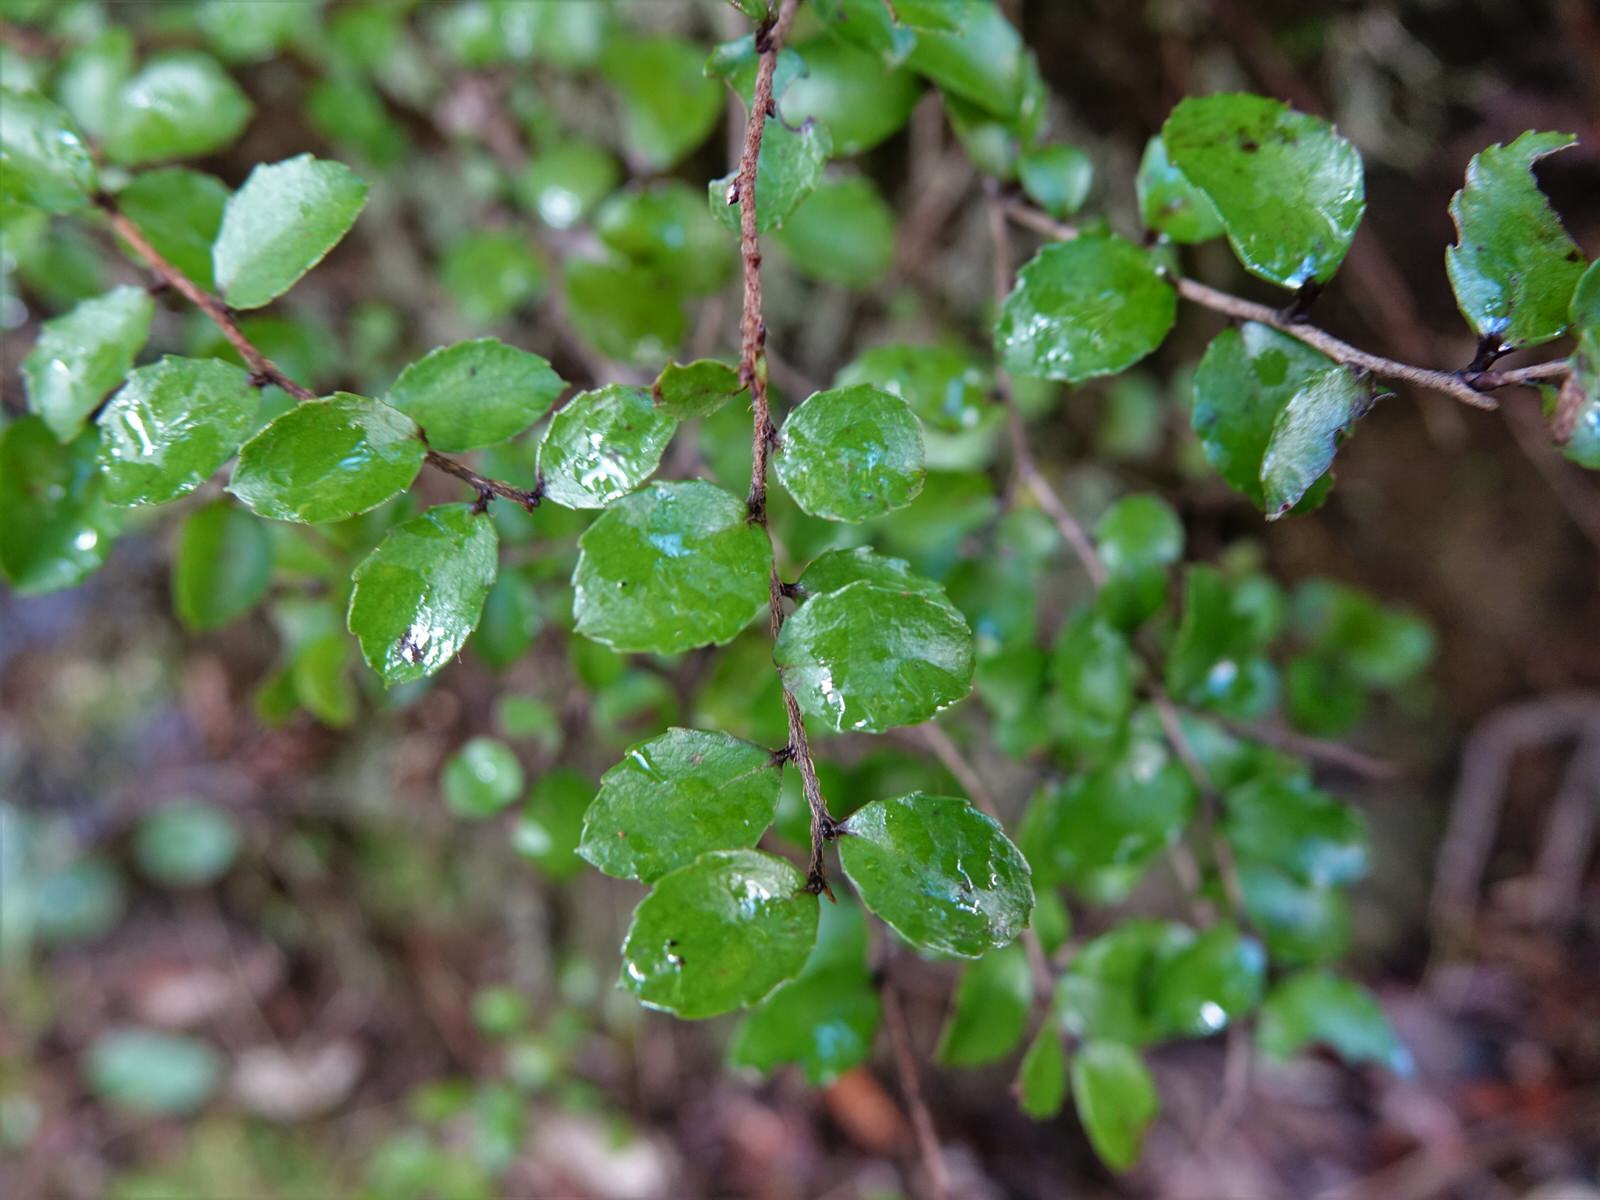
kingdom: Plantae
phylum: Tracheophyta
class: Magnoliopsida
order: Ericales
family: Ericaceae
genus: Gaultheria
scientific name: Gaultheria antipoda
